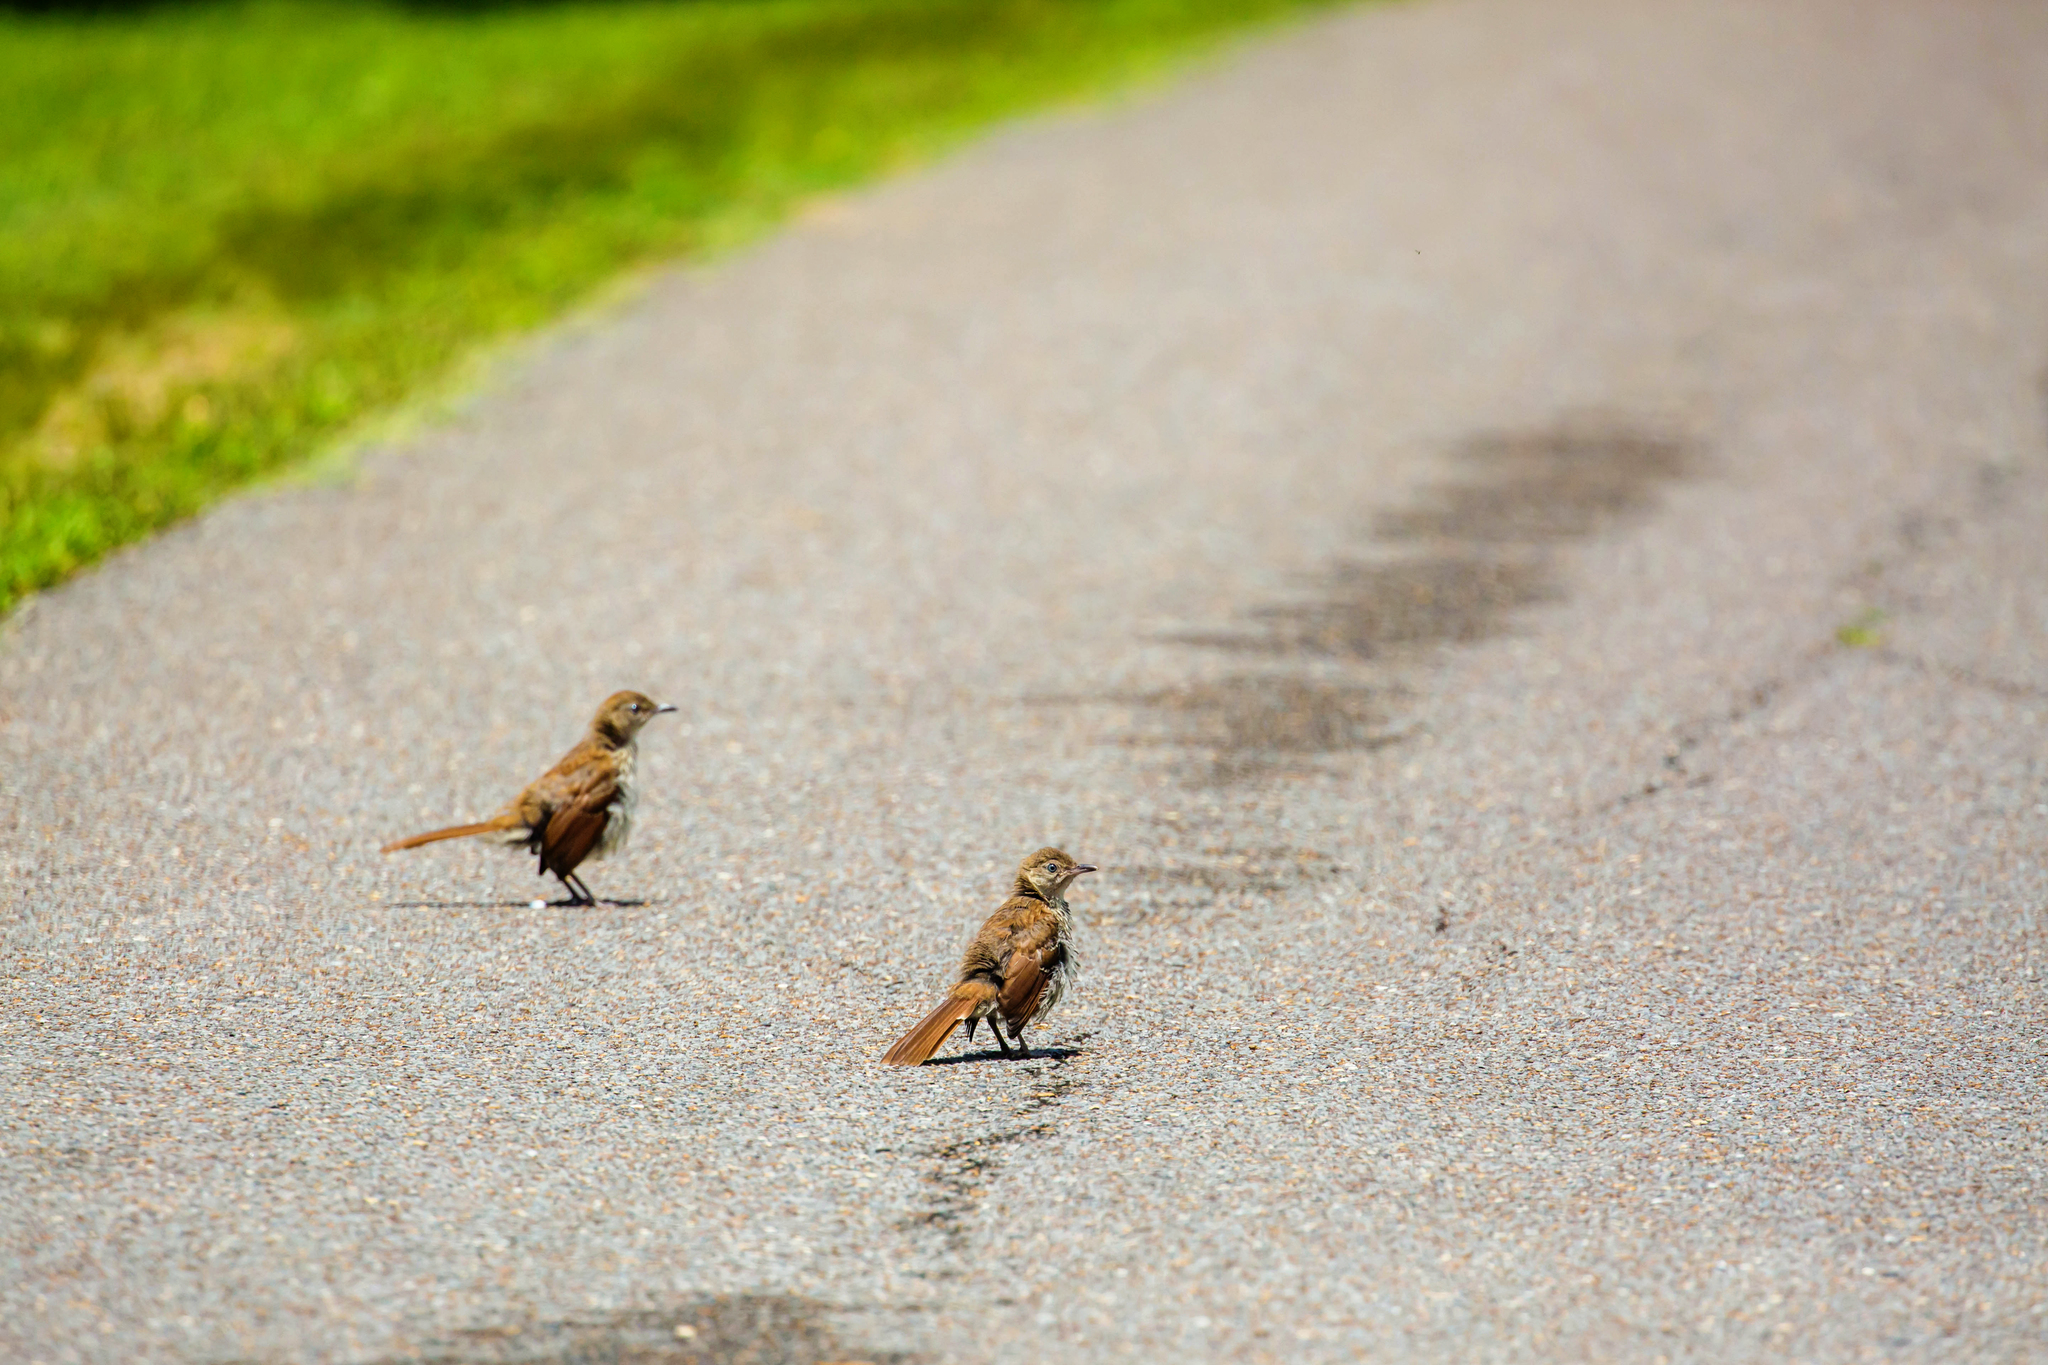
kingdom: Animalia
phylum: Chordata
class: Aves
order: Passeriformes
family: Mimidae
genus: Toxostoma
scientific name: Toxostoma rufum
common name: Brown thrasher
